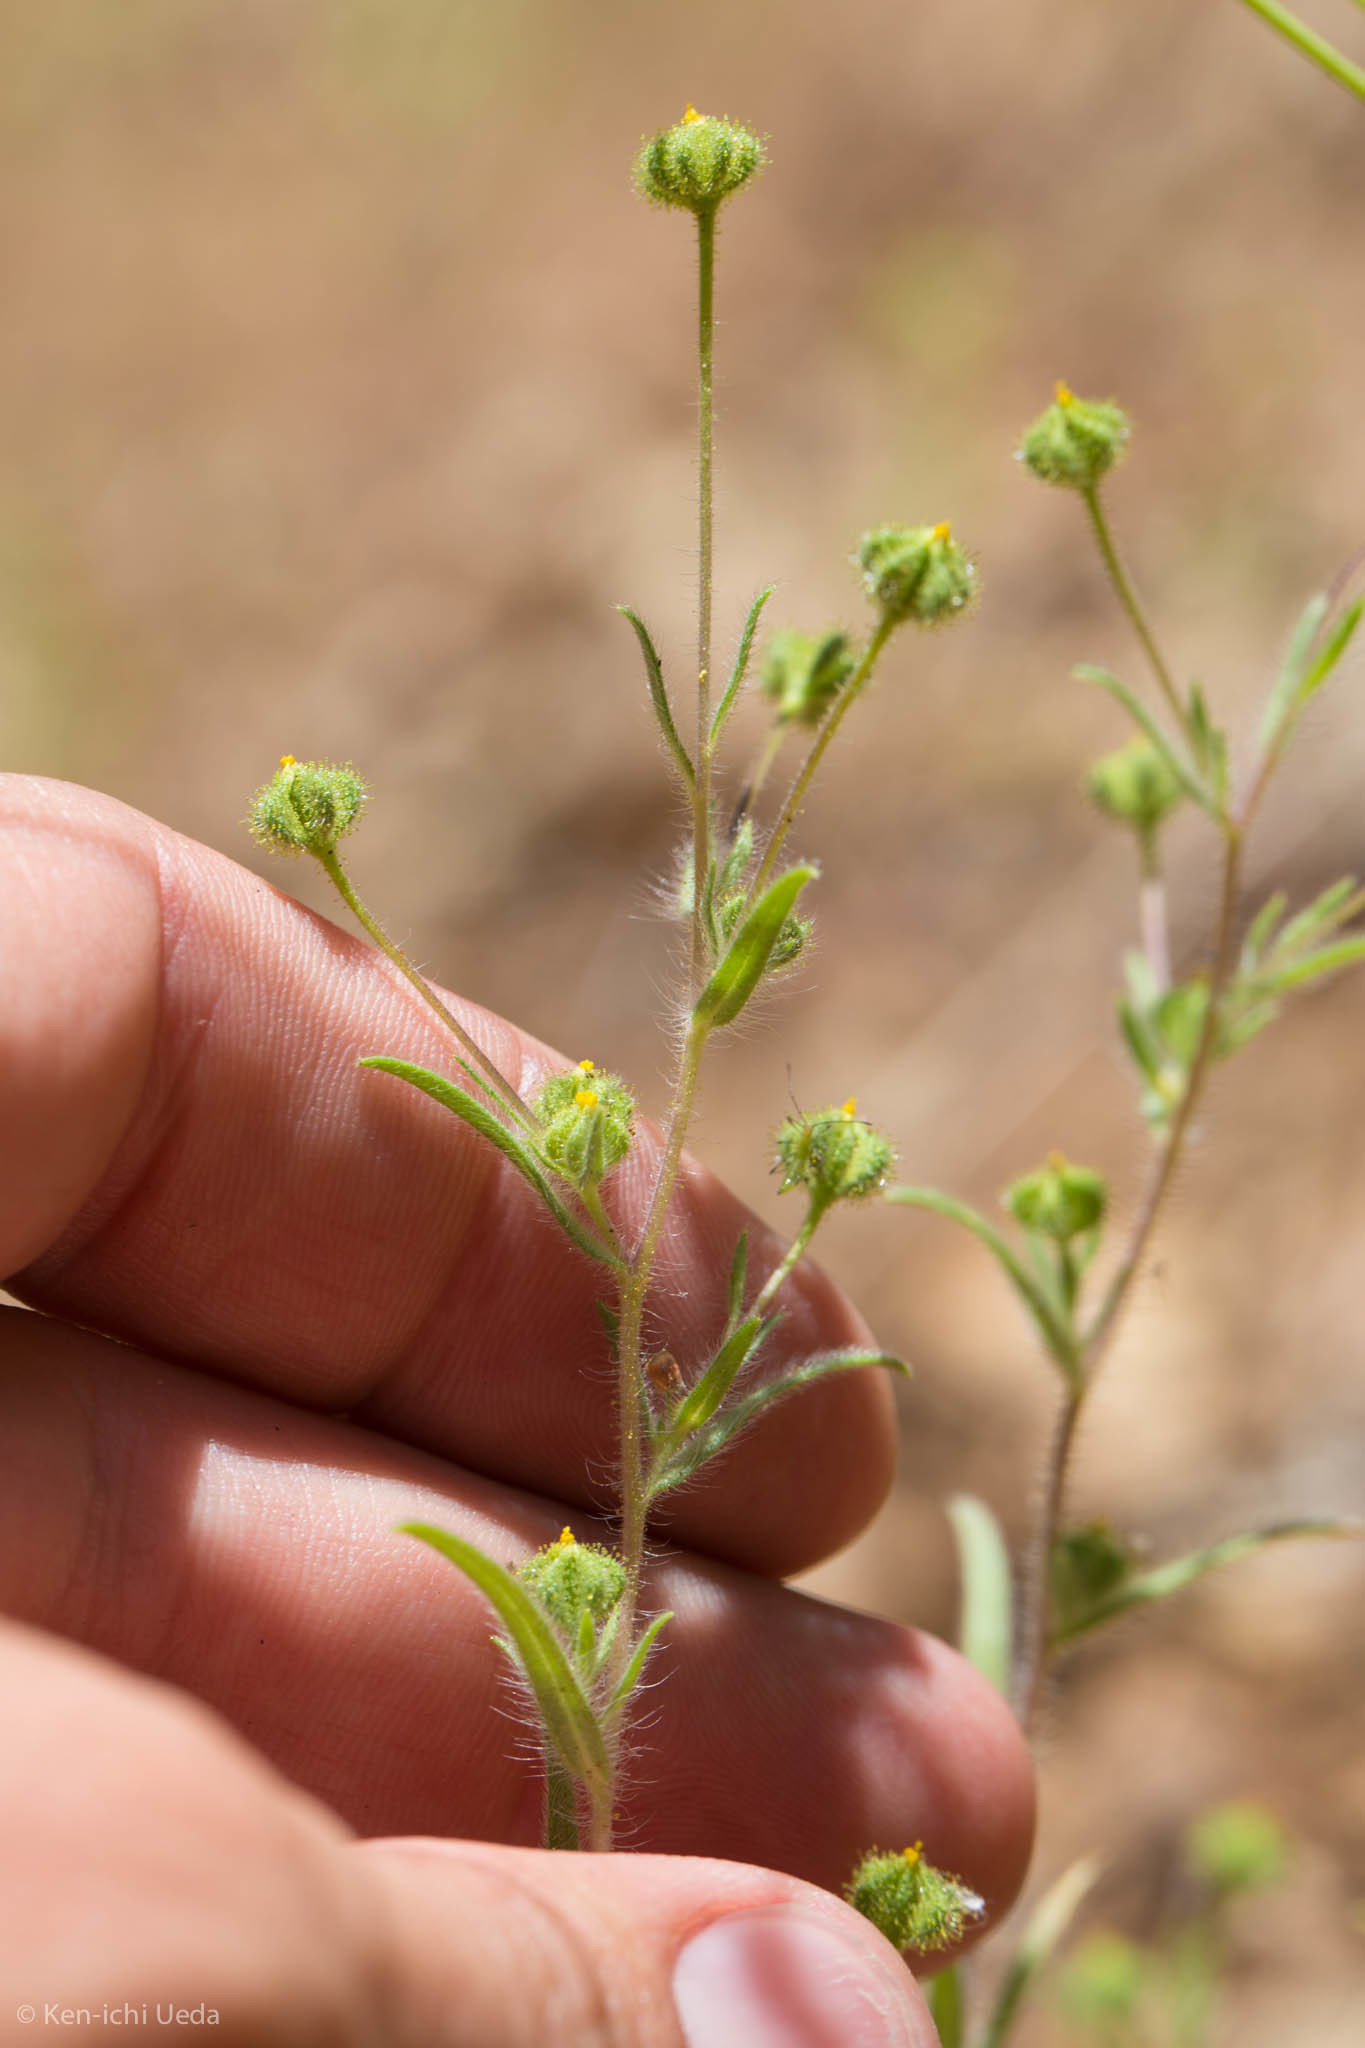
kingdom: Plantae
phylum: Tracheophyta
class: Magnoliopsida
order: Asterales
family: Asteraceae
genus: Madia
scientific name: Madia exigua
